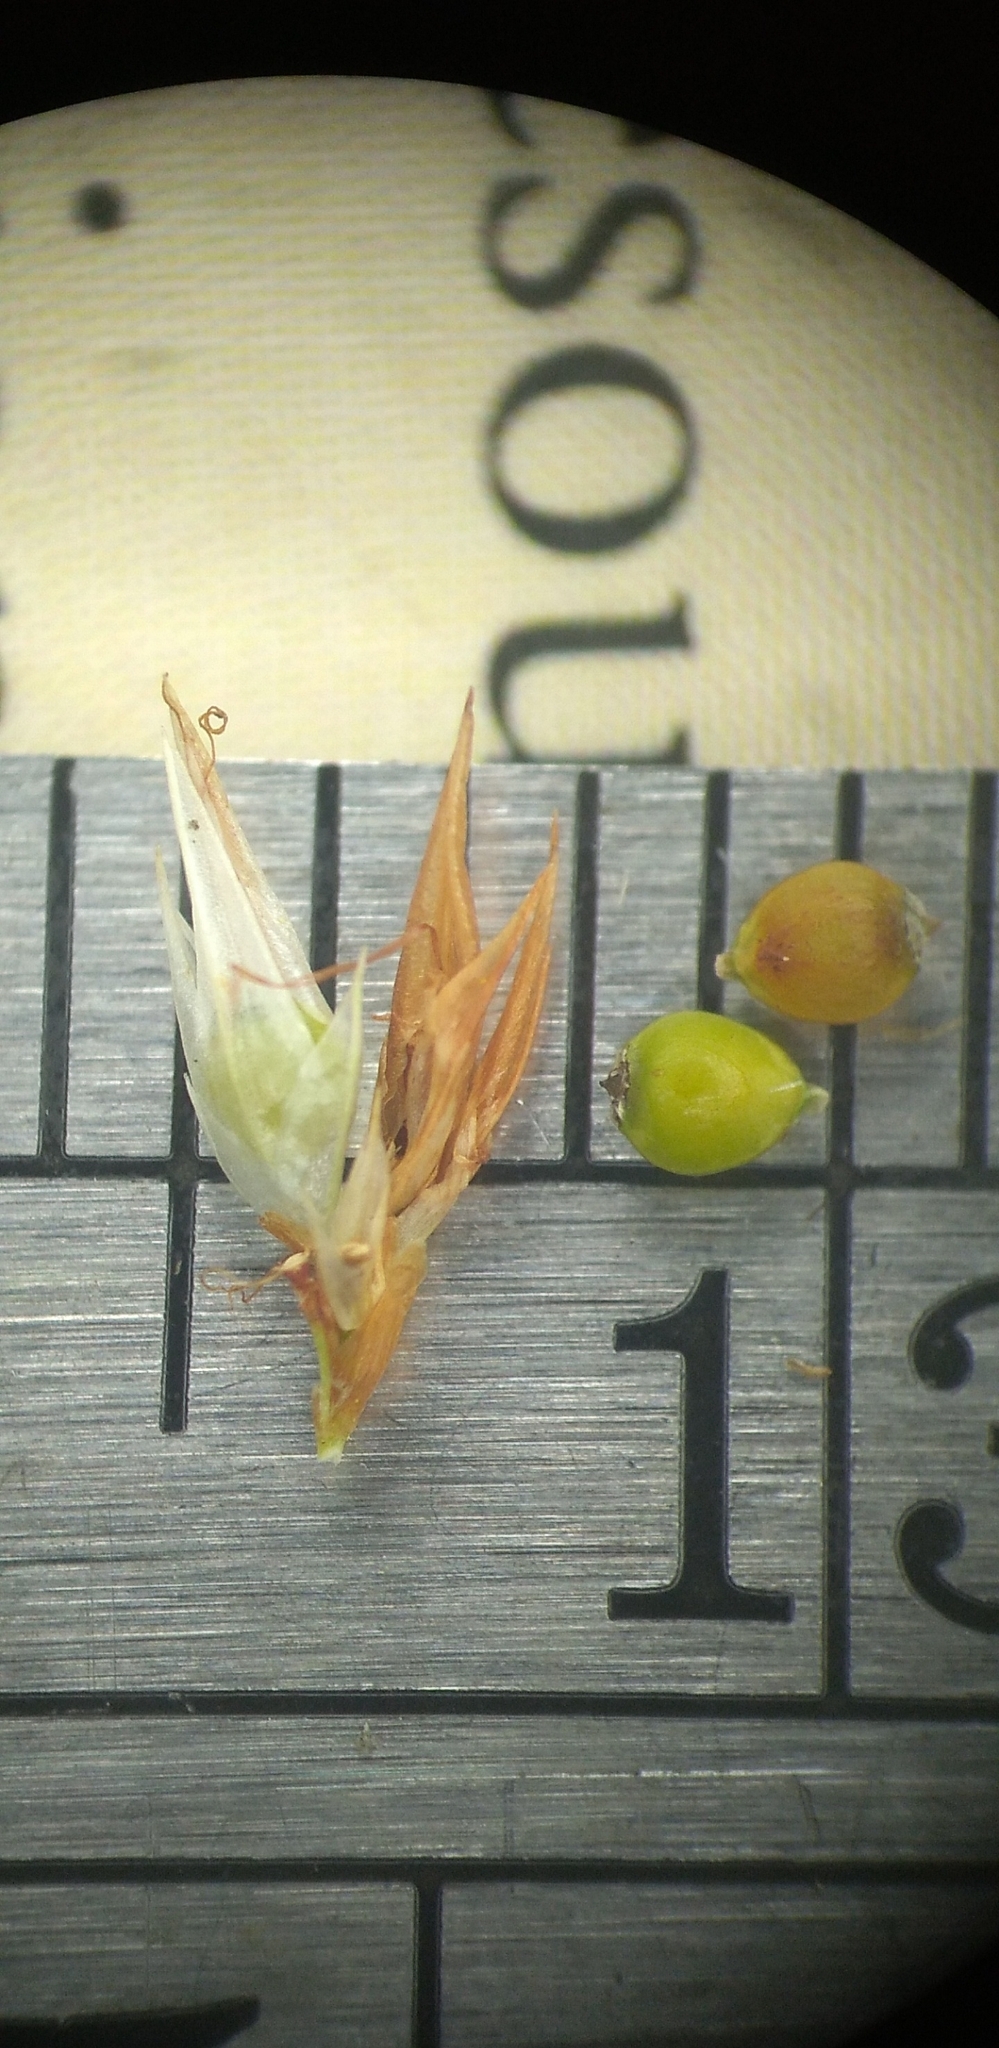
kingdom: Plantae
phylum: Tracheophyta
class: Liliopsida
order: Poales
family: Cyperaceae
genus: Rhynchospora
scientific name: Rhynchospora pallida
